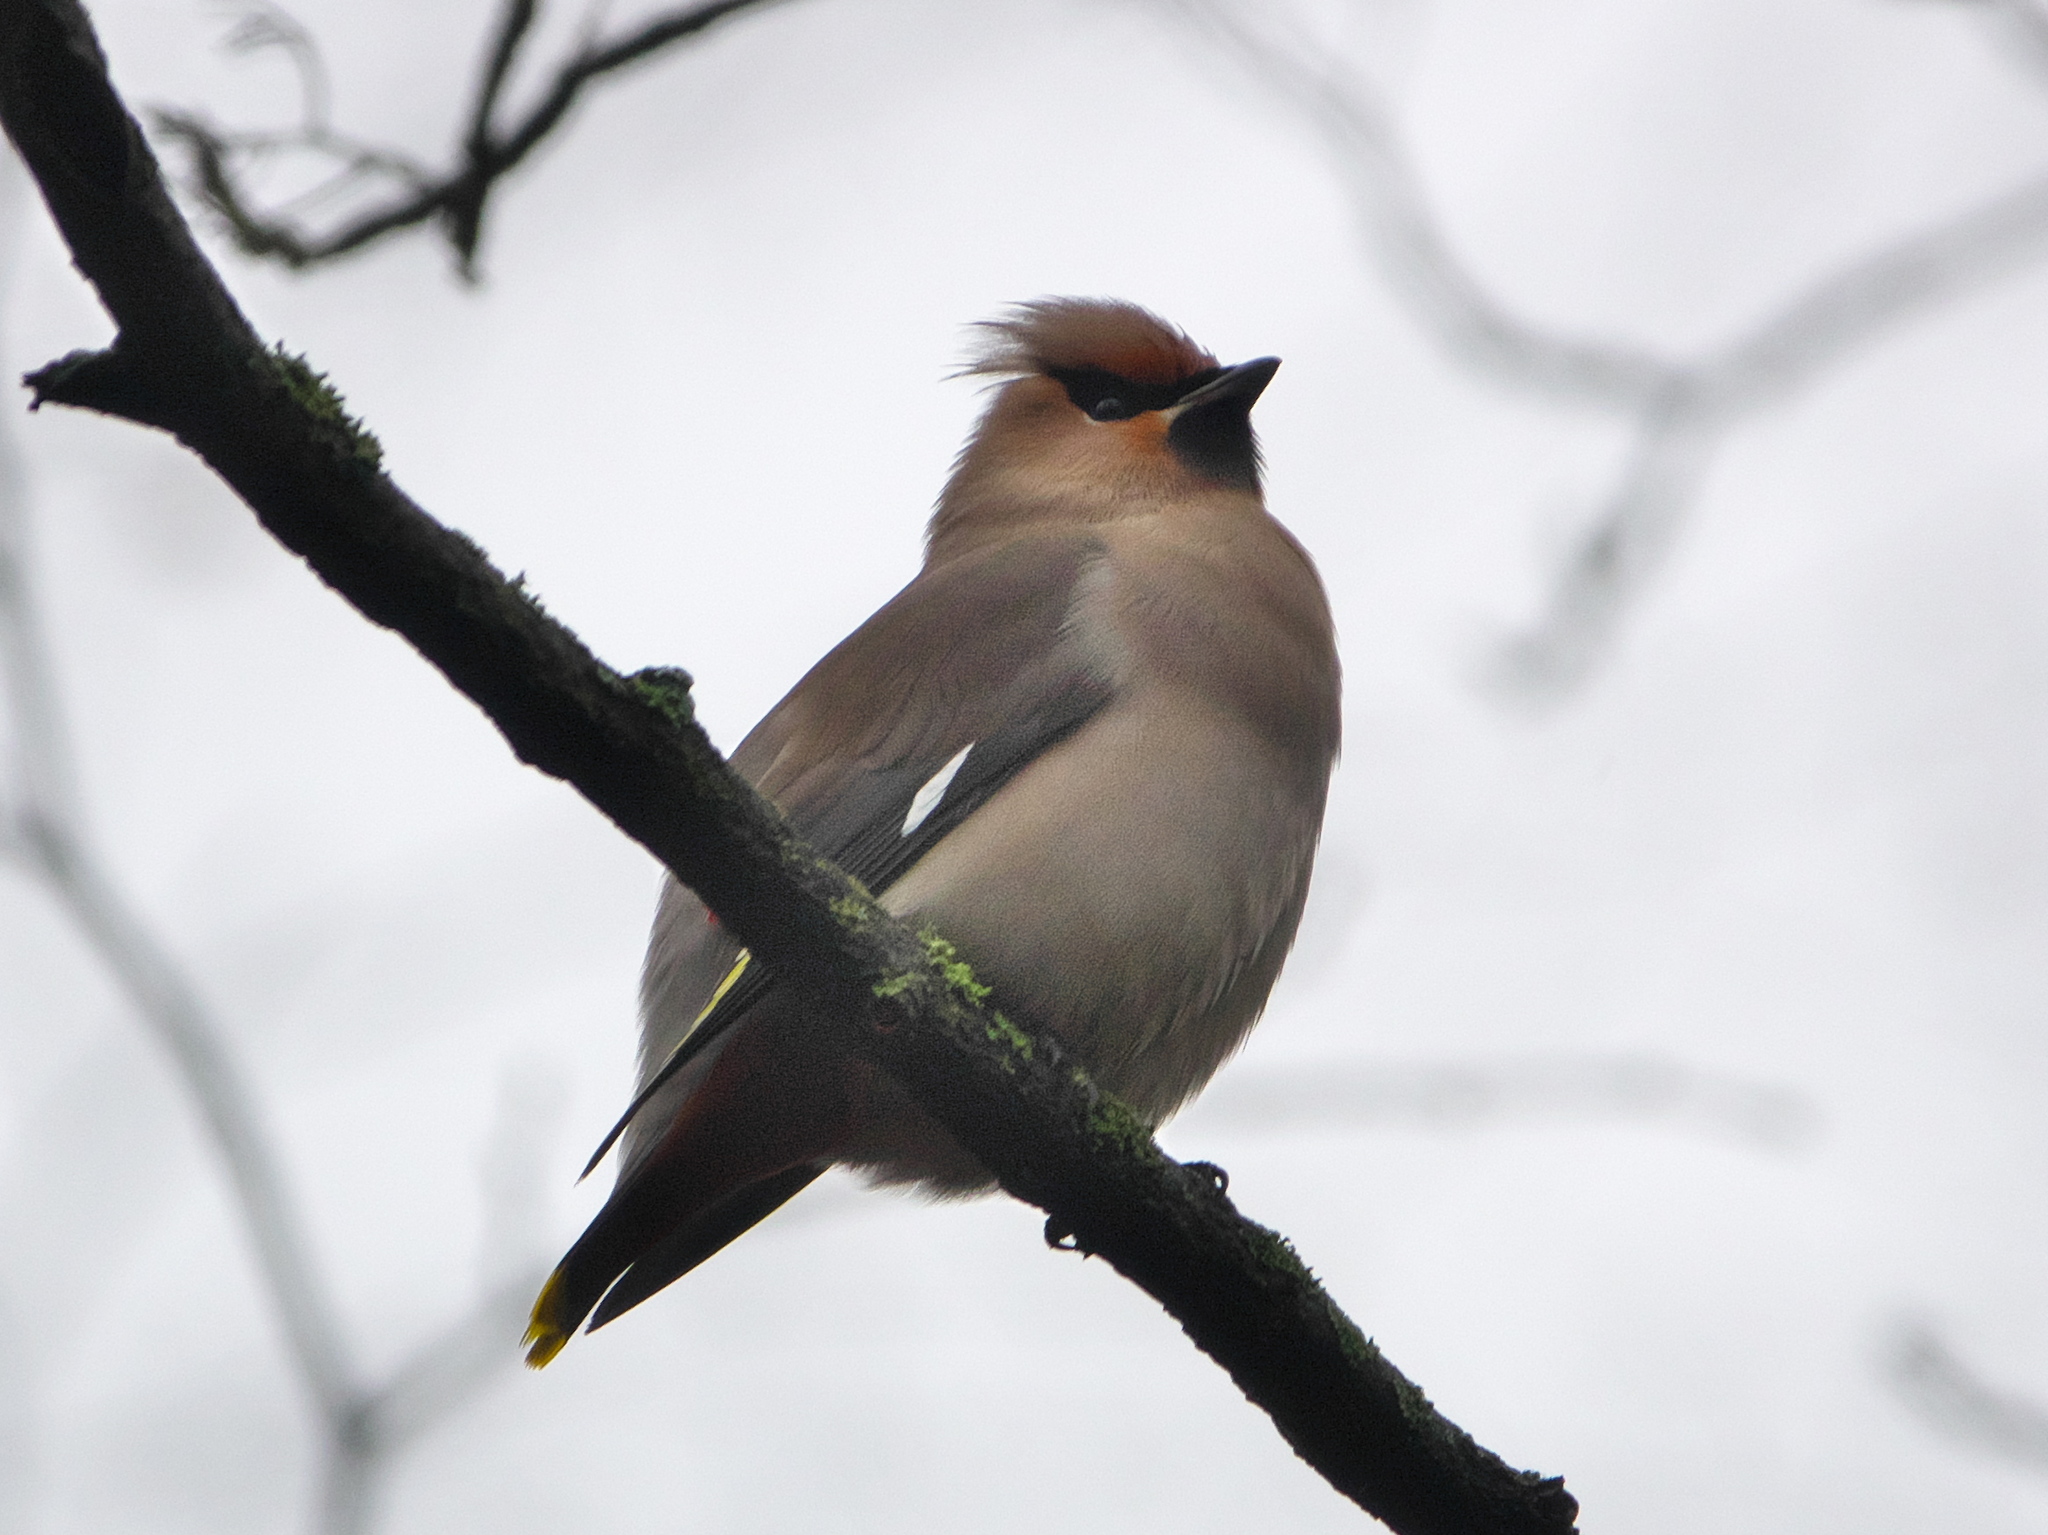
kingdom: Animalia
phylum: Chordata
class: Aves
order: Passeriformes
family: Bombycillidae
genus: Bombycilla
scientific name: Bombycilla garrulus
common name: Bohemian waxwing
